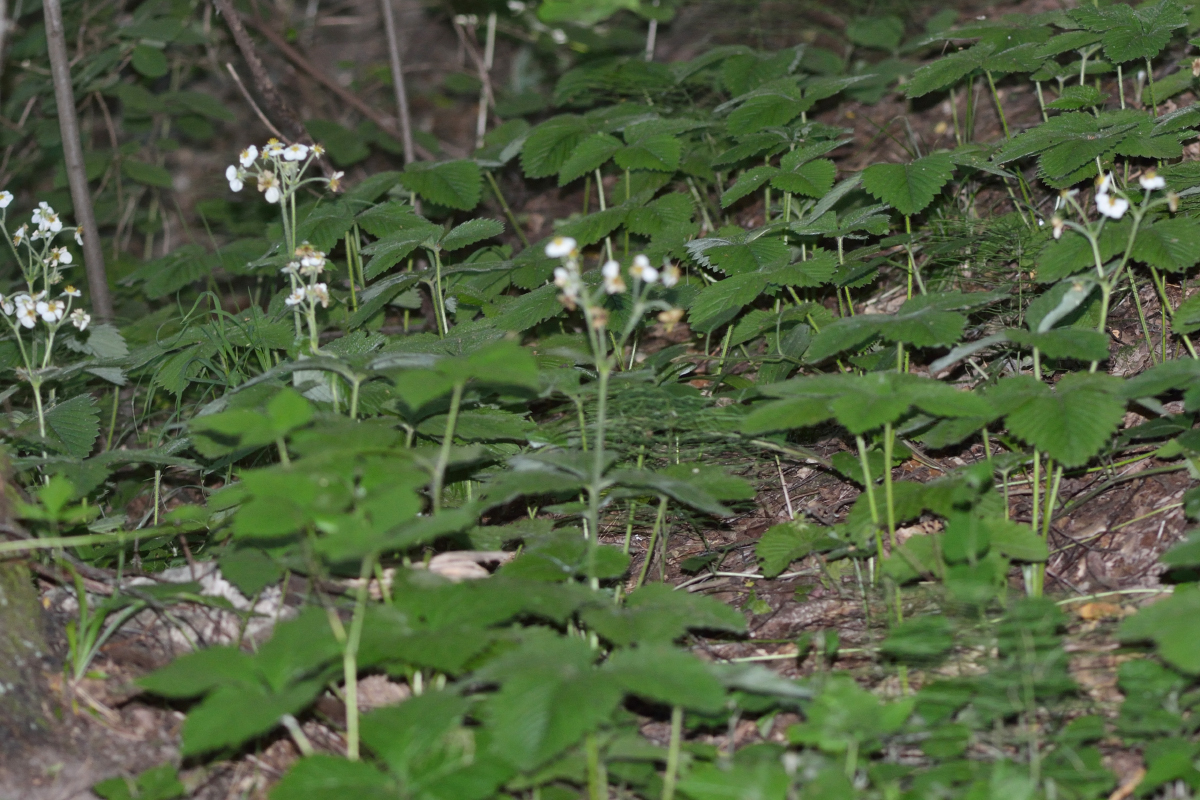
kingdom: Plantae
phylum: Tracheophyta
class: Magnoliopsida
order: Rosales
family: Rosaceae
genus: Fragaria
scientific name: Fragaria moschata
